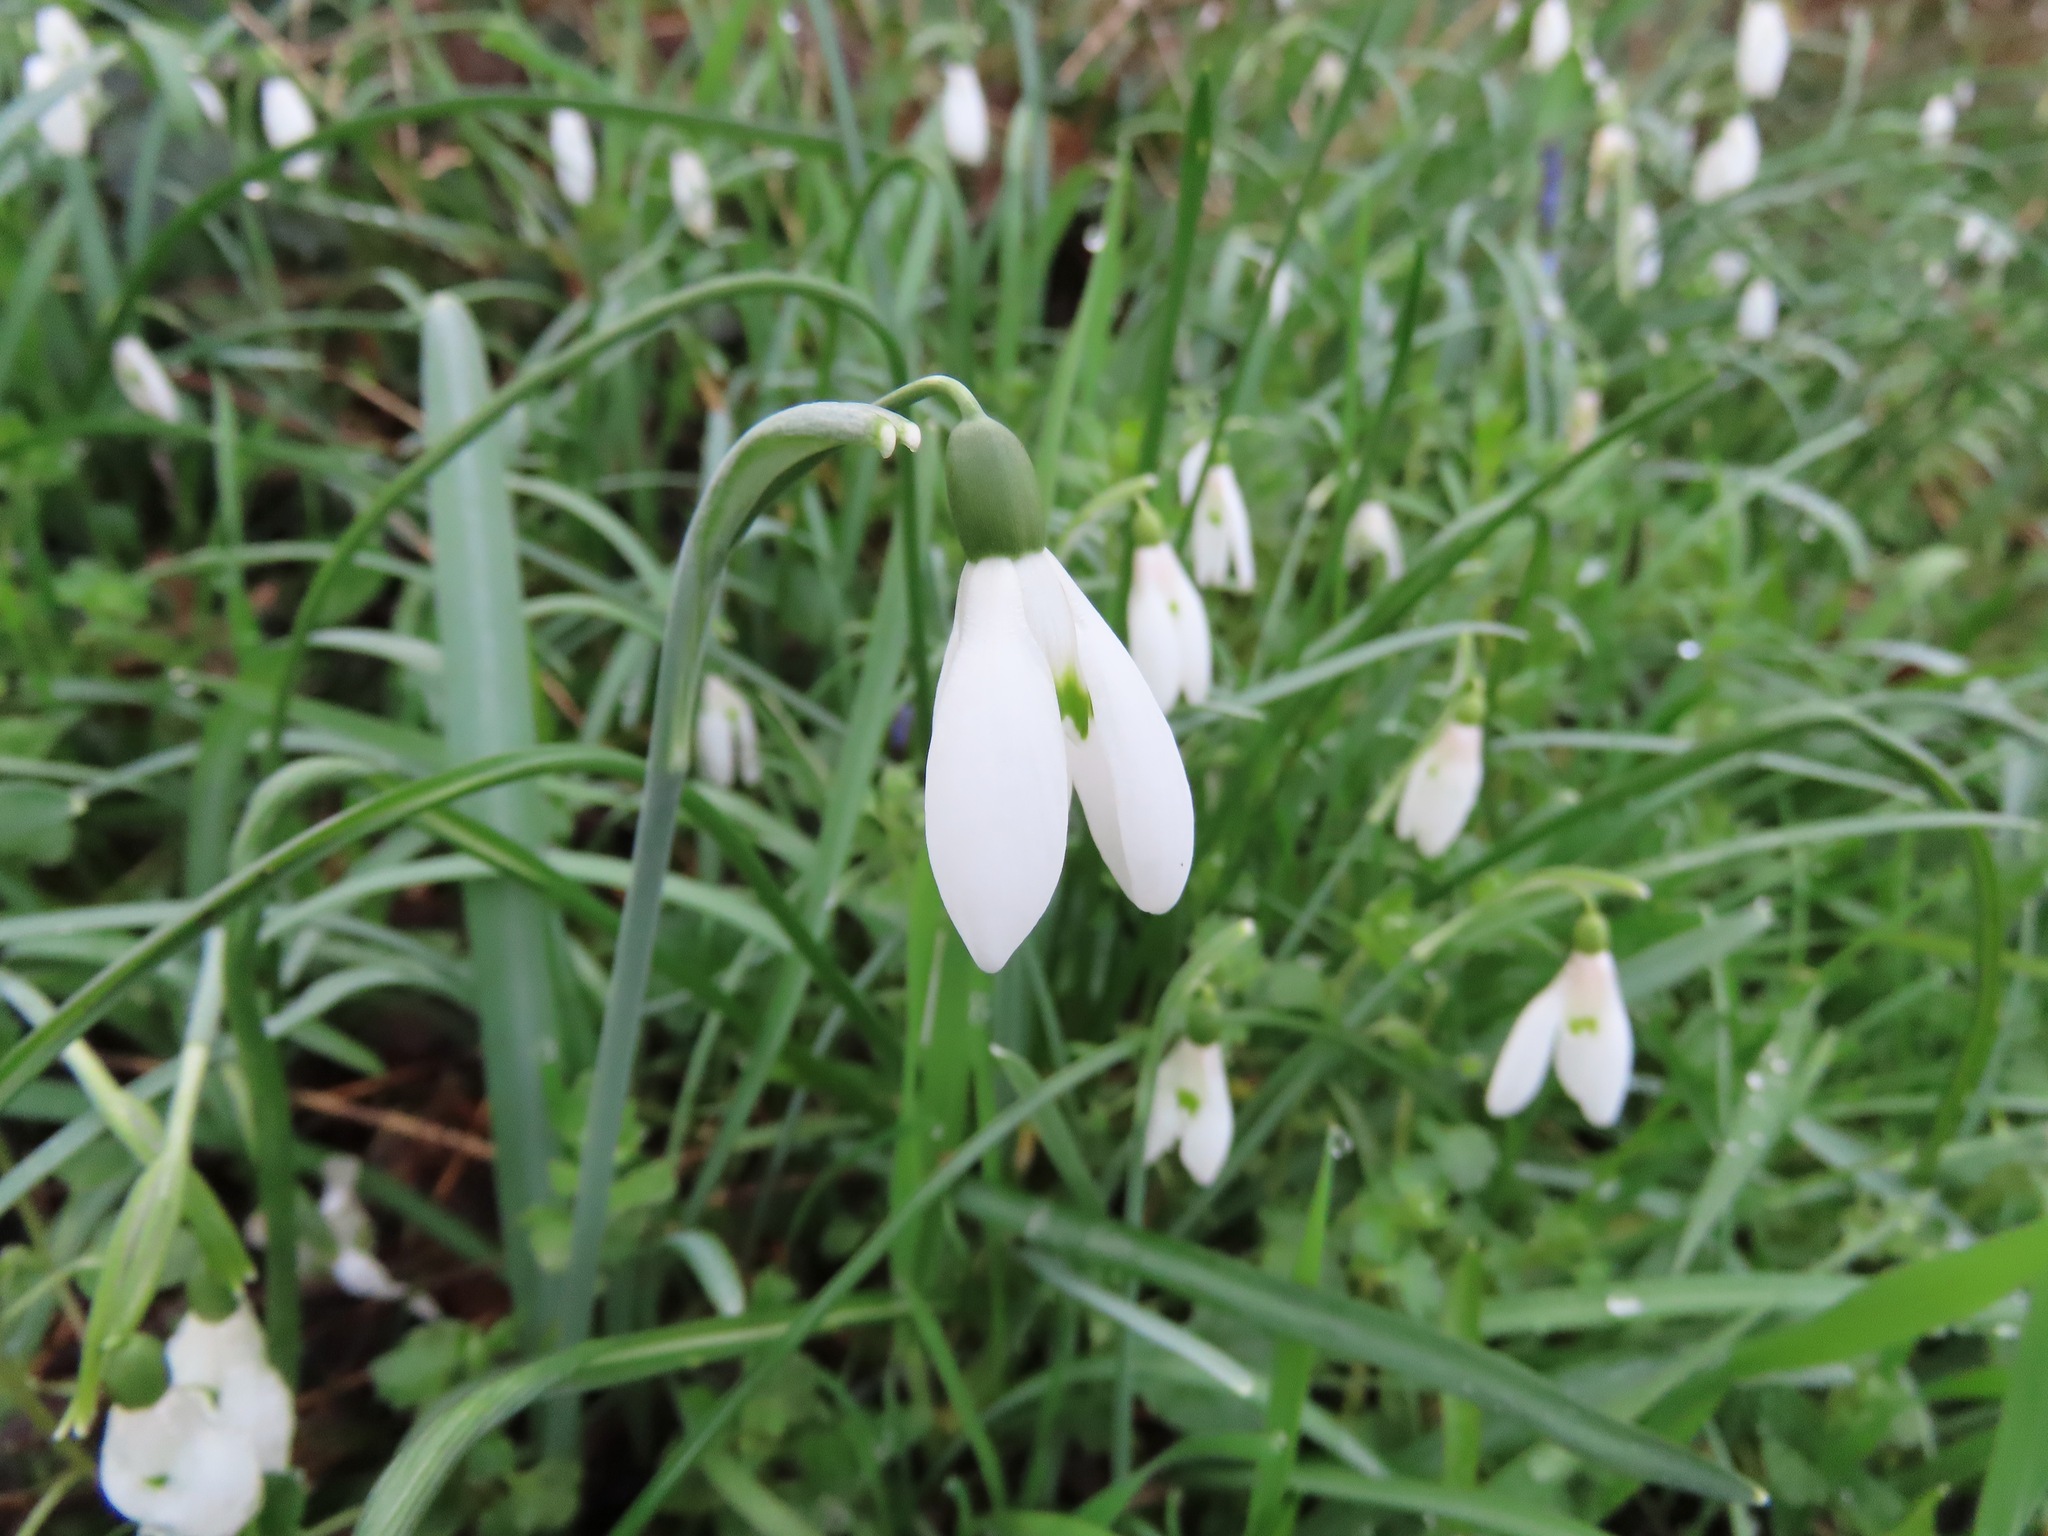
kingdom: Plantae
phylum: Tracheophyta
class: Liliopsida
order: Asparagales
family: Amaryllidaceae
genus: Galanthus
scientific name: Galanthus nivalis
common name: Snowdrop
